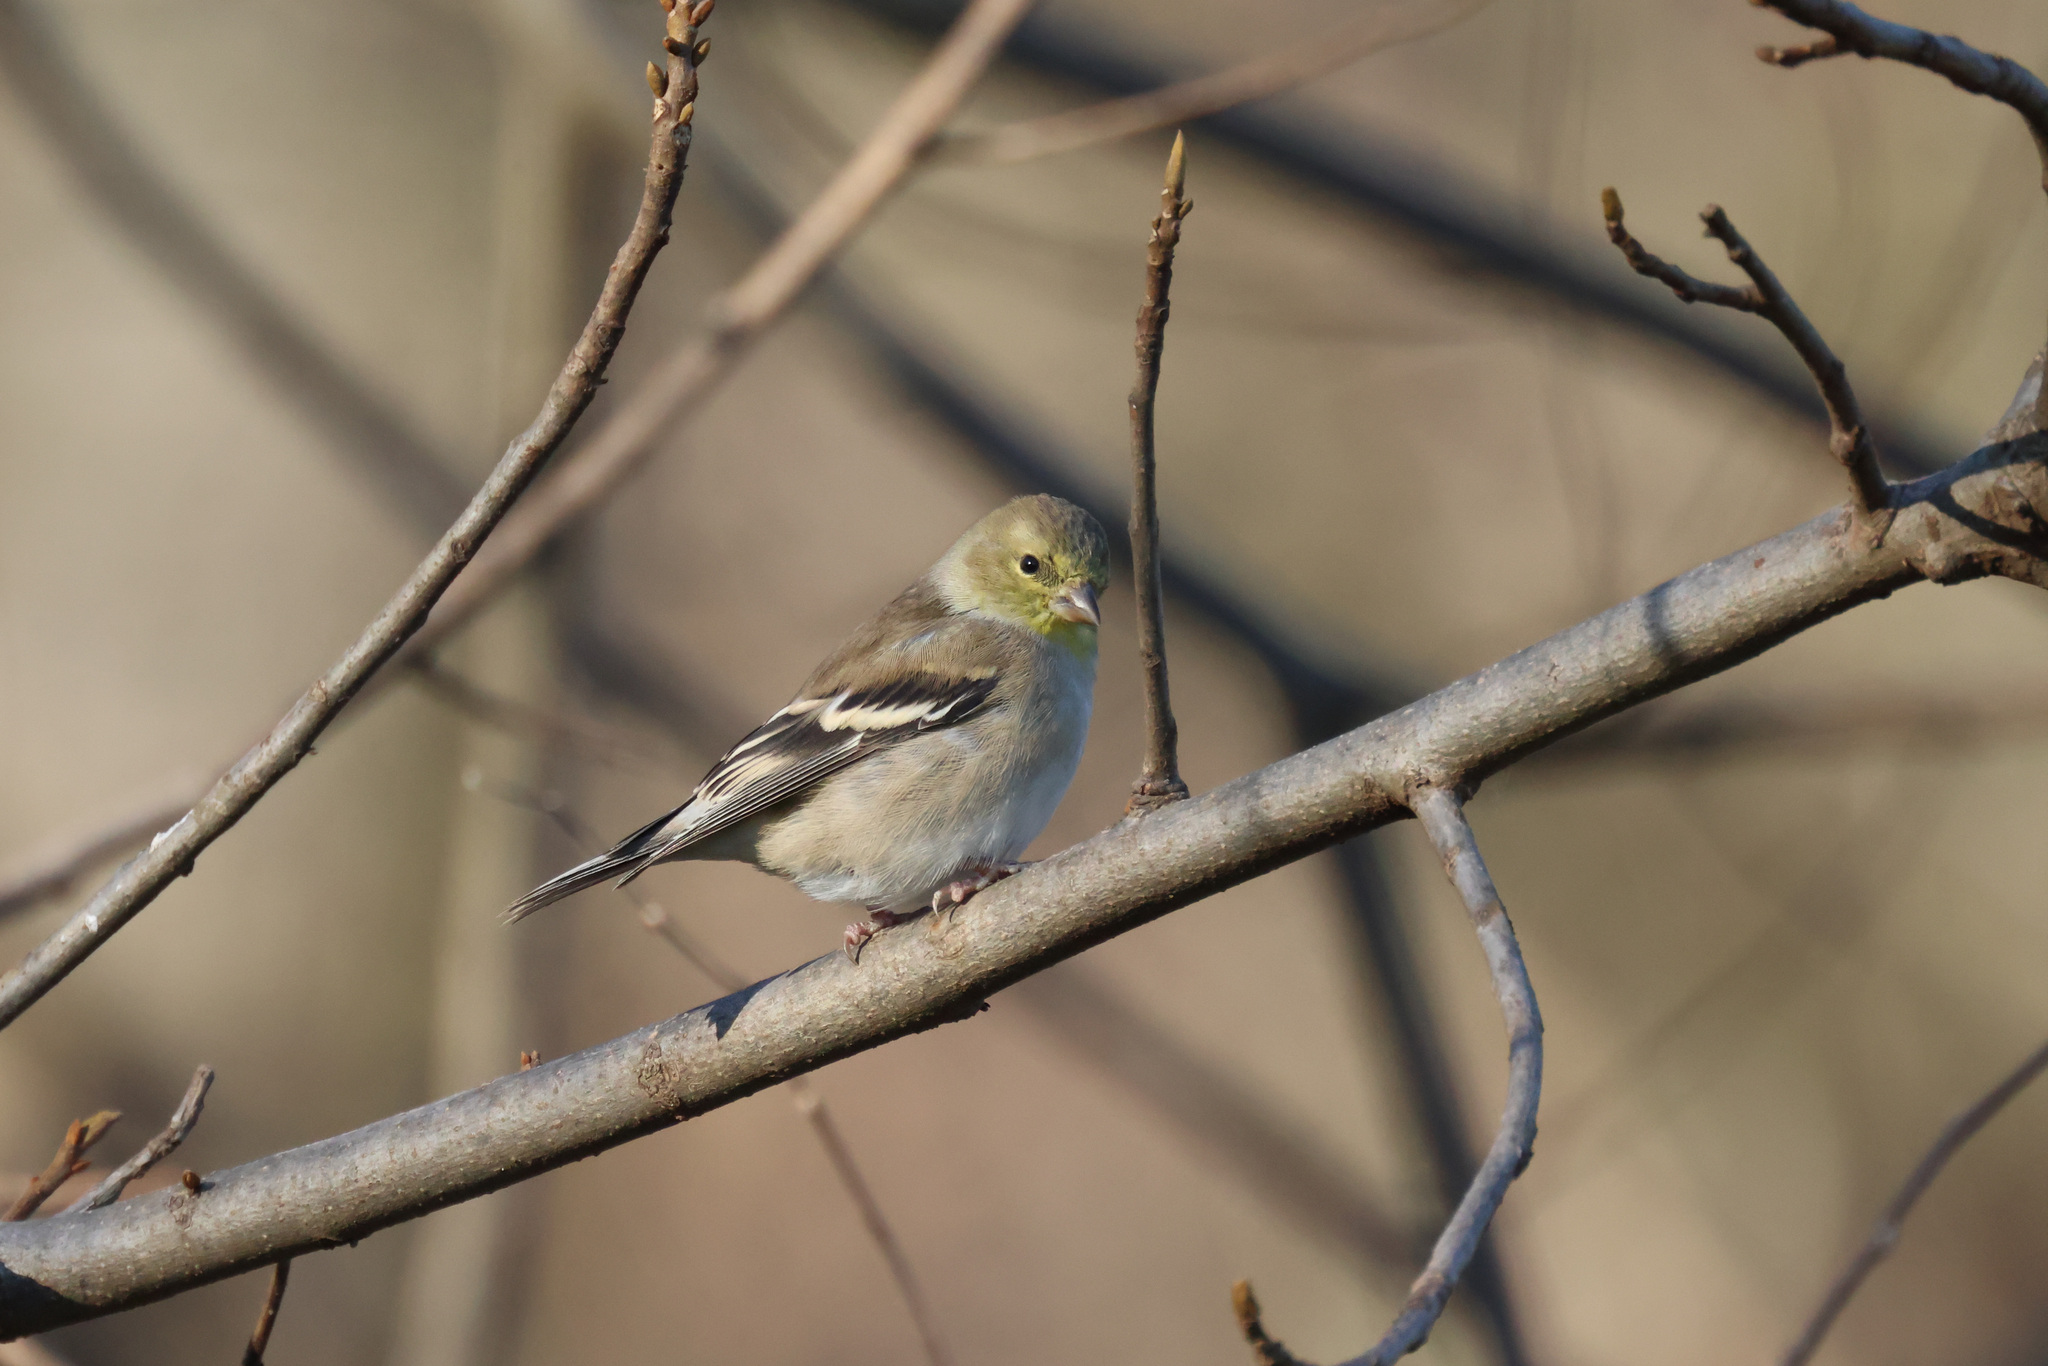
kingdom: Animalia
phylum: Chordata
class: Aves
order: Passeriformes
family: Fringillidae
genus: Spinus
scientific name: Spinus tristis
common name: American goldfinch
